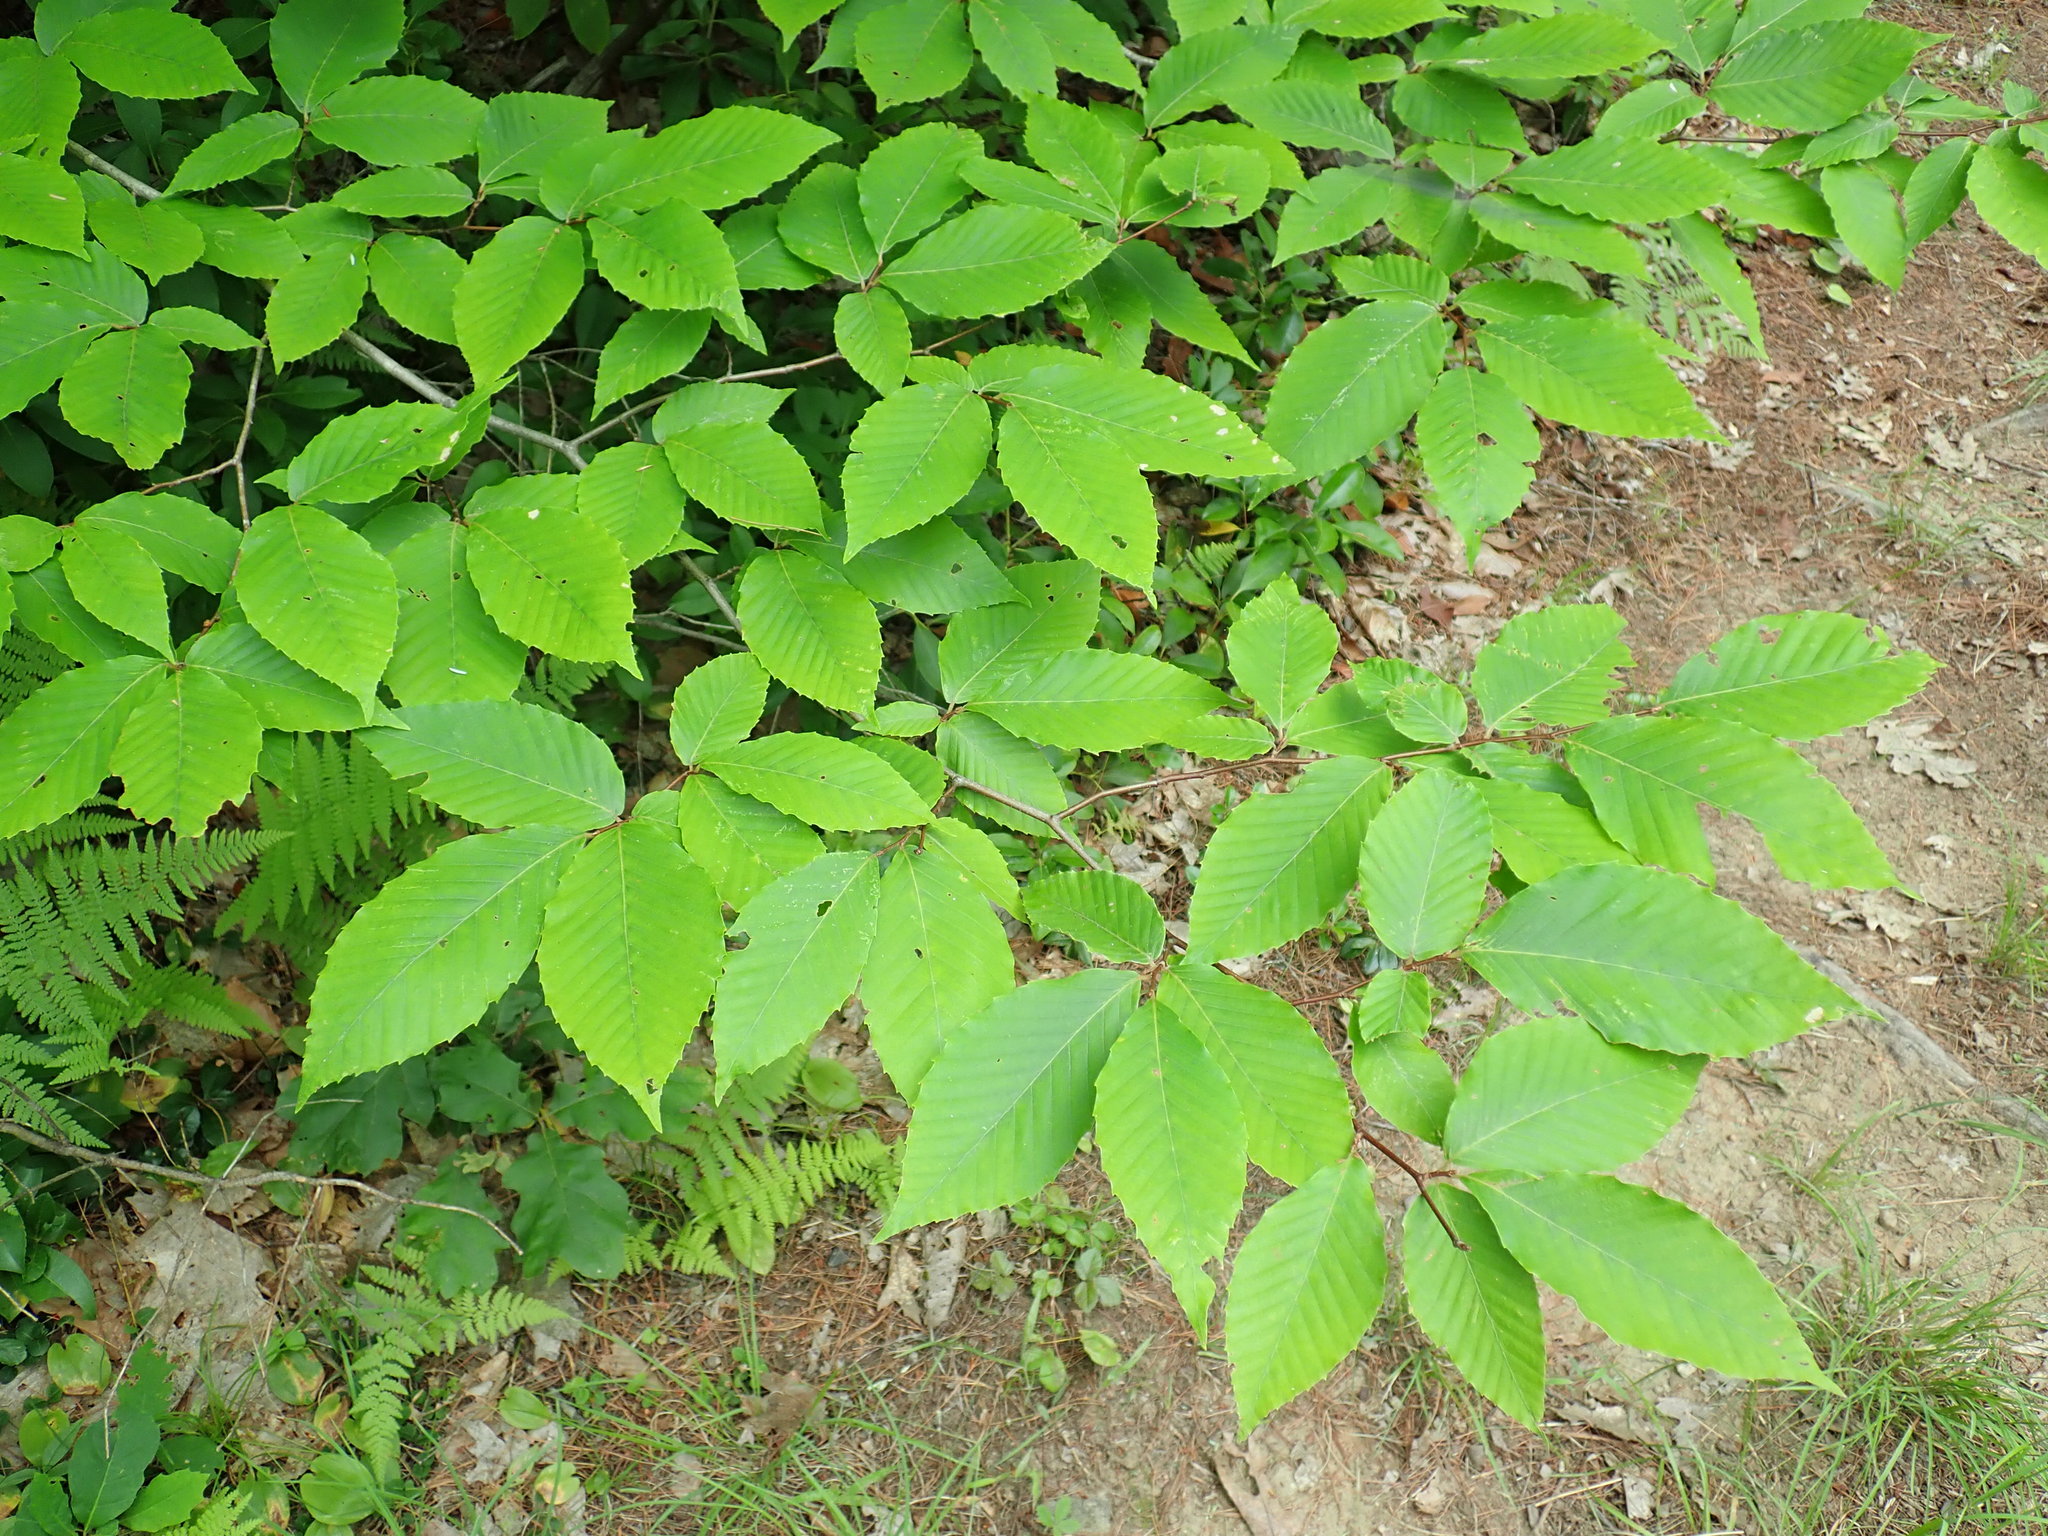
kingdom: Plantae
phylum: Tracheophyta
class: Magnoliopsida
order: Fagales
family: Fagaceae
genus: Fagus
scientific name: Fagus grandifolia
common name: American beech
